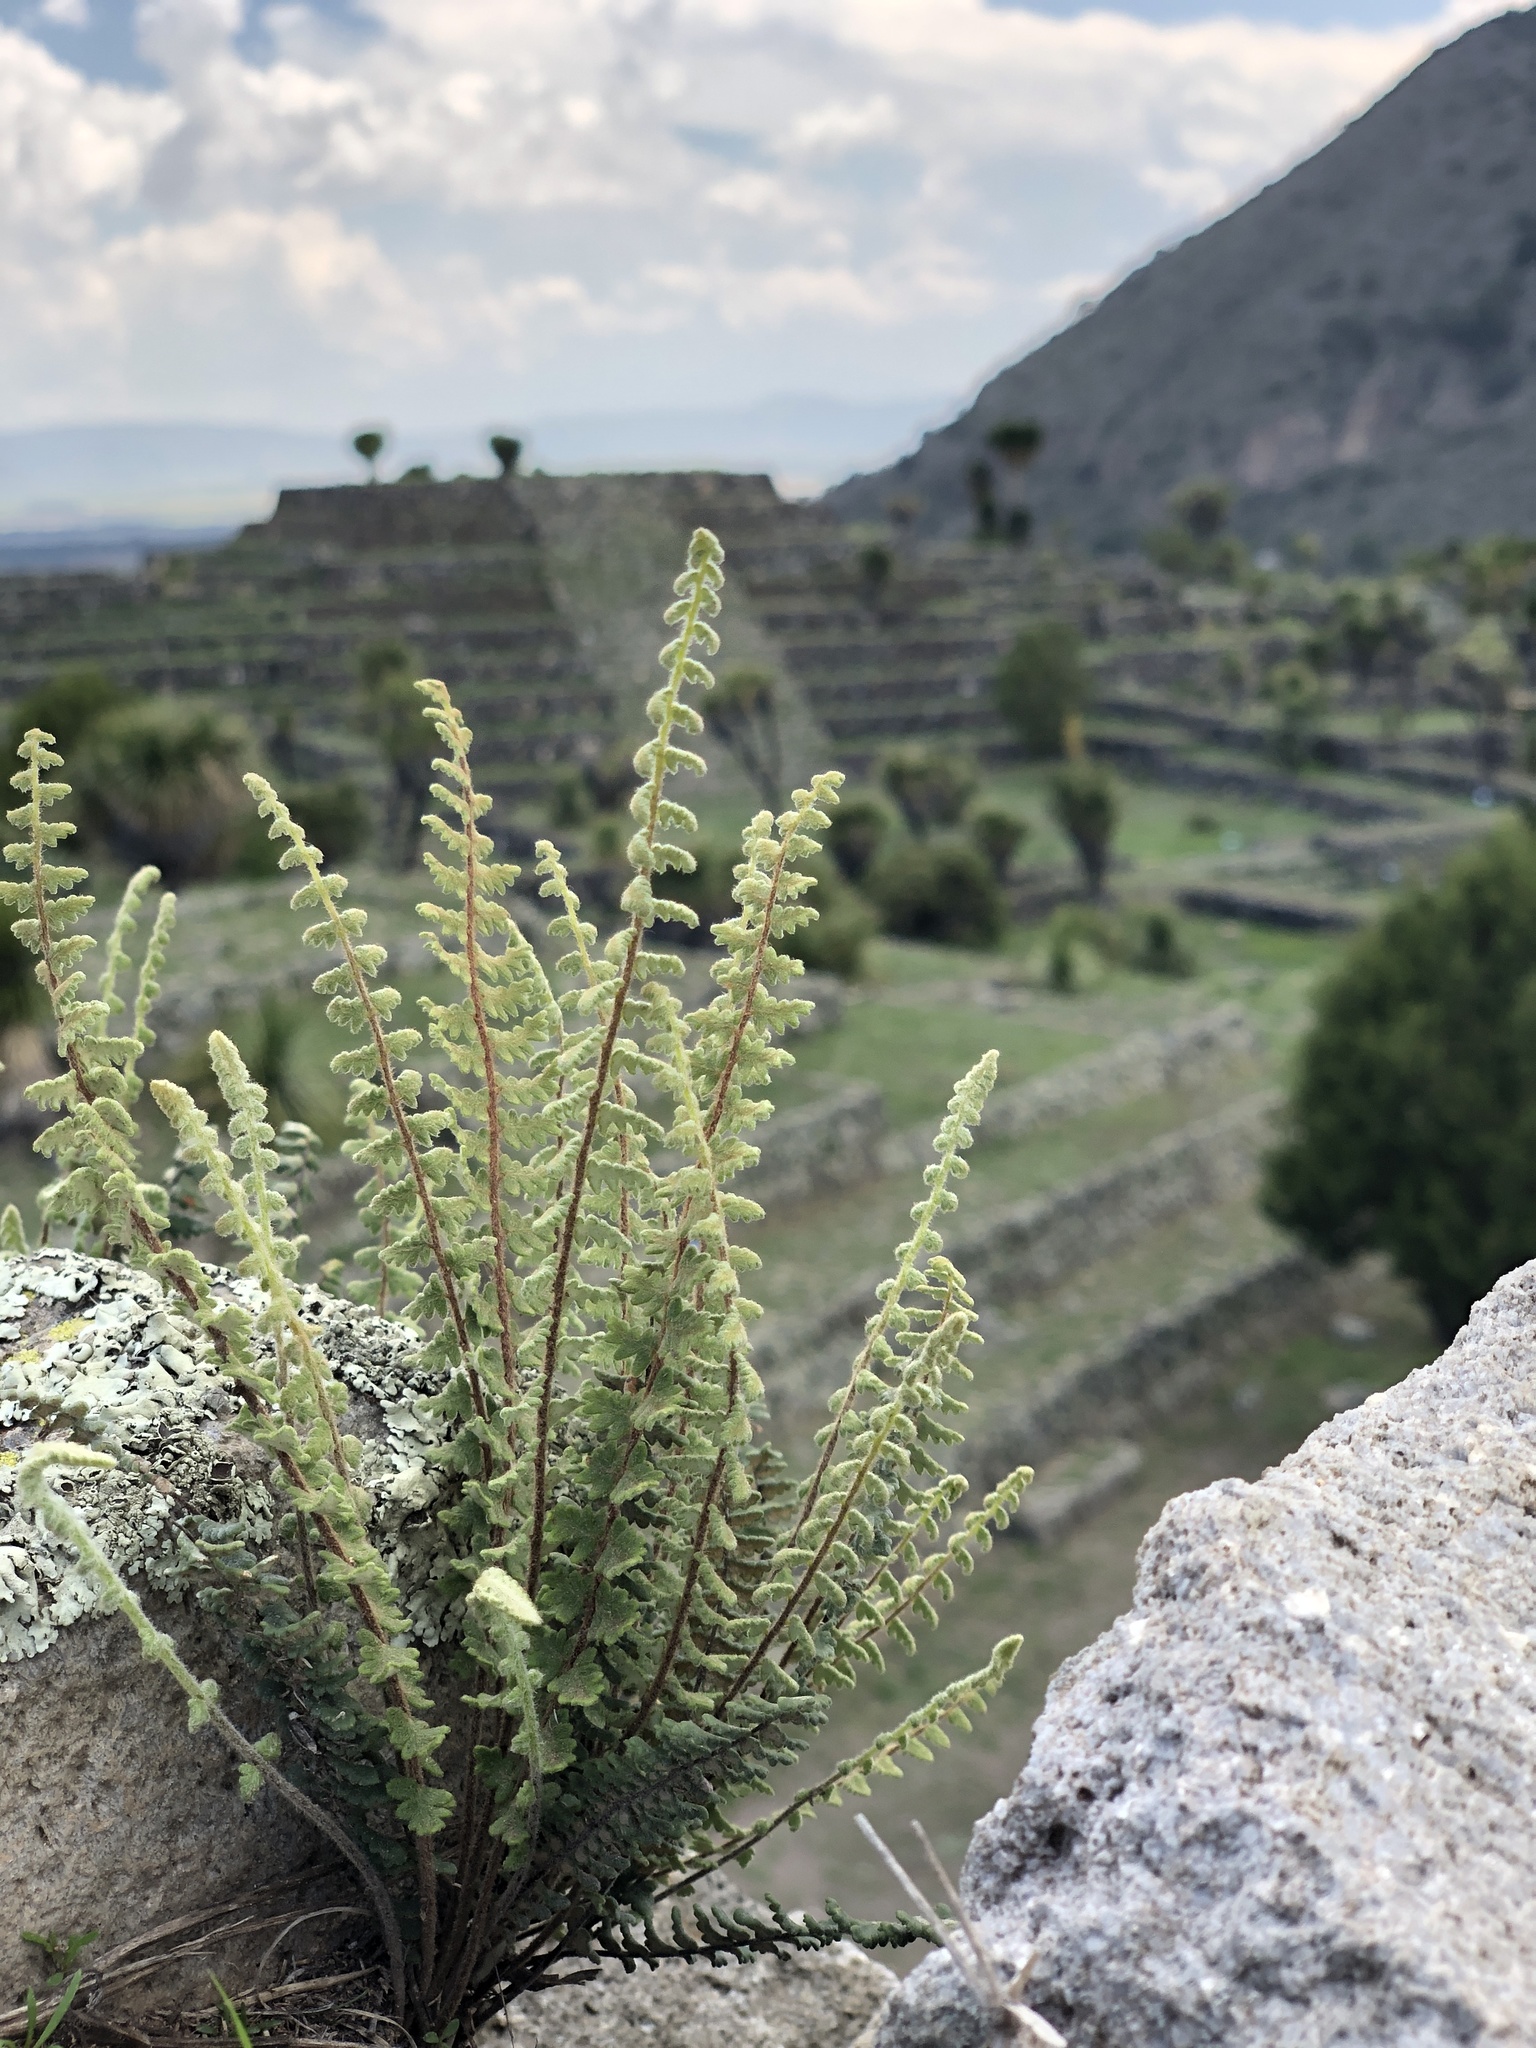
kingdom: Plantae
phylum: Tracheophyta
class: Polypodiopsida
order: Polypodiales
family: Pteridaceae
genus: Myriopteris
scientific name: Myriopteris aurea
